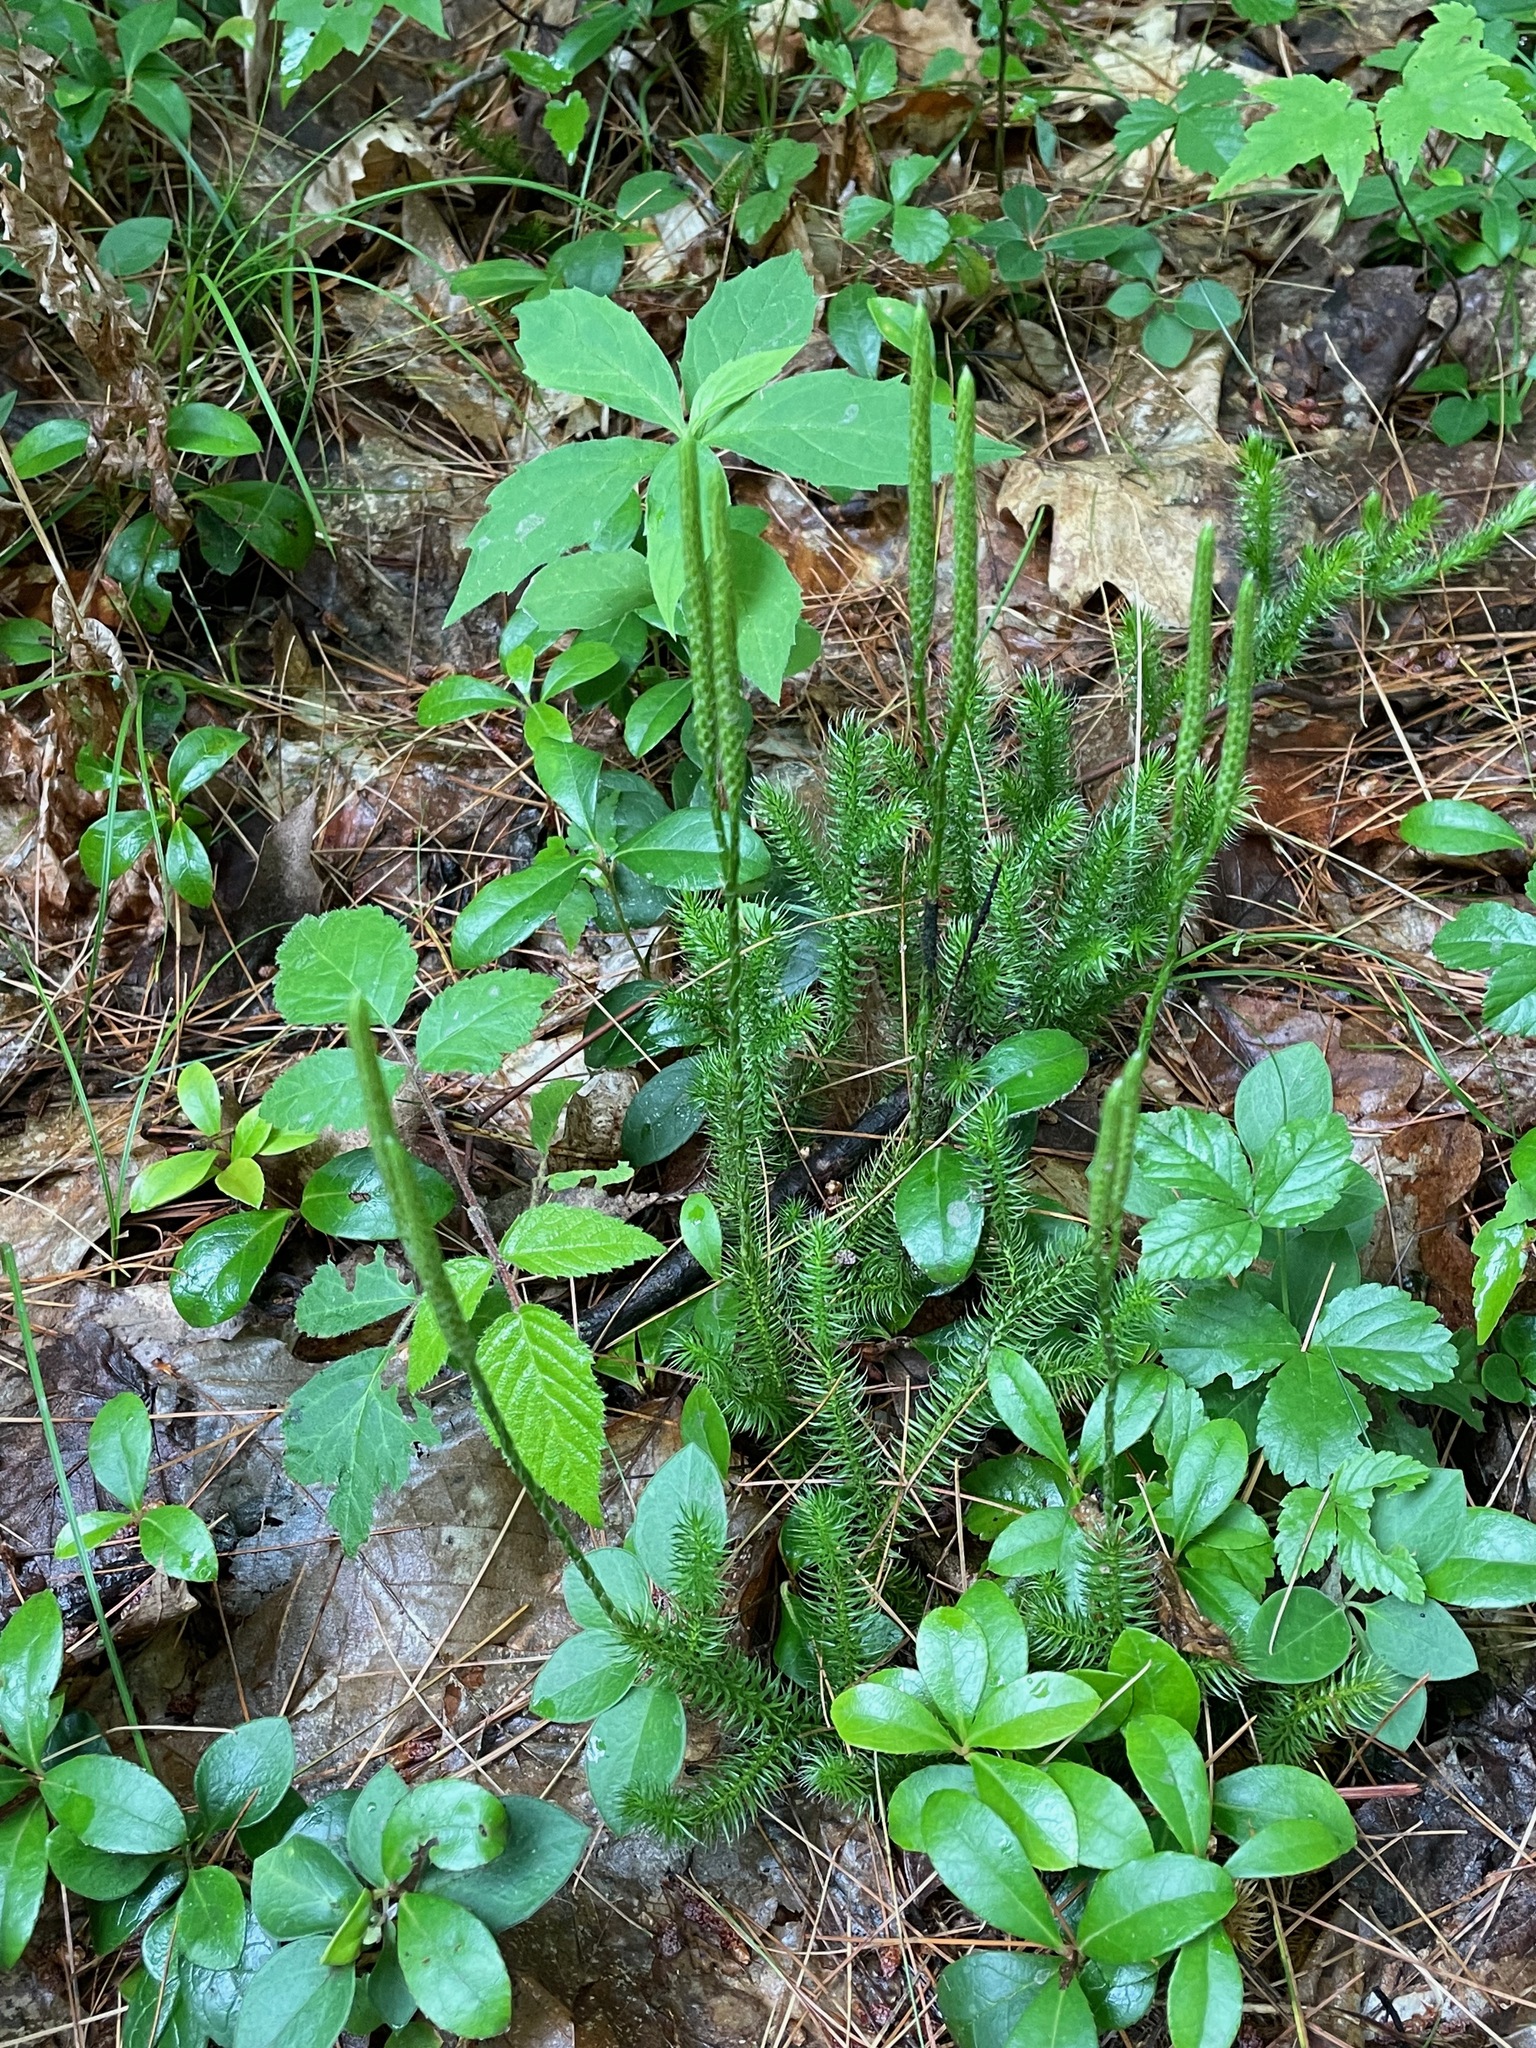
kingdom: Plantae
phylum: Tracheophyta
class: Lycopodiopsida
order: Lycopodiales
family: Lycopodiaceae
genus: Lycopodium
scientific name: Lycopodium clavatum
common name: Stag's-horn clubmoss
